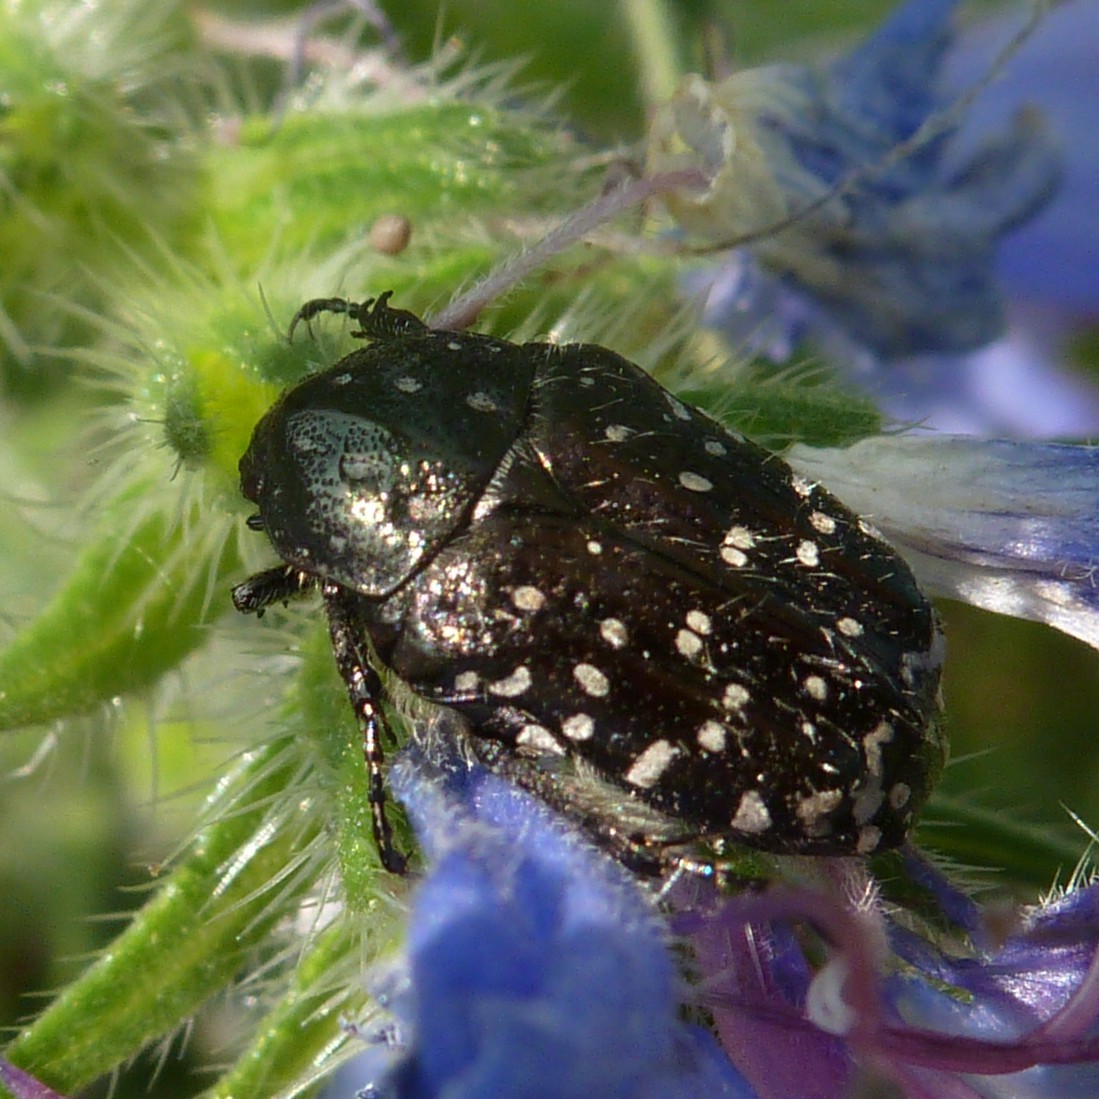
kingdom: Animalia
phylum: Arthropoda
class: Insecta
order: Coleoptera
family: Scarabaeidae
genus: Oxythyrea
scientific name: Oxythyrea funesta
